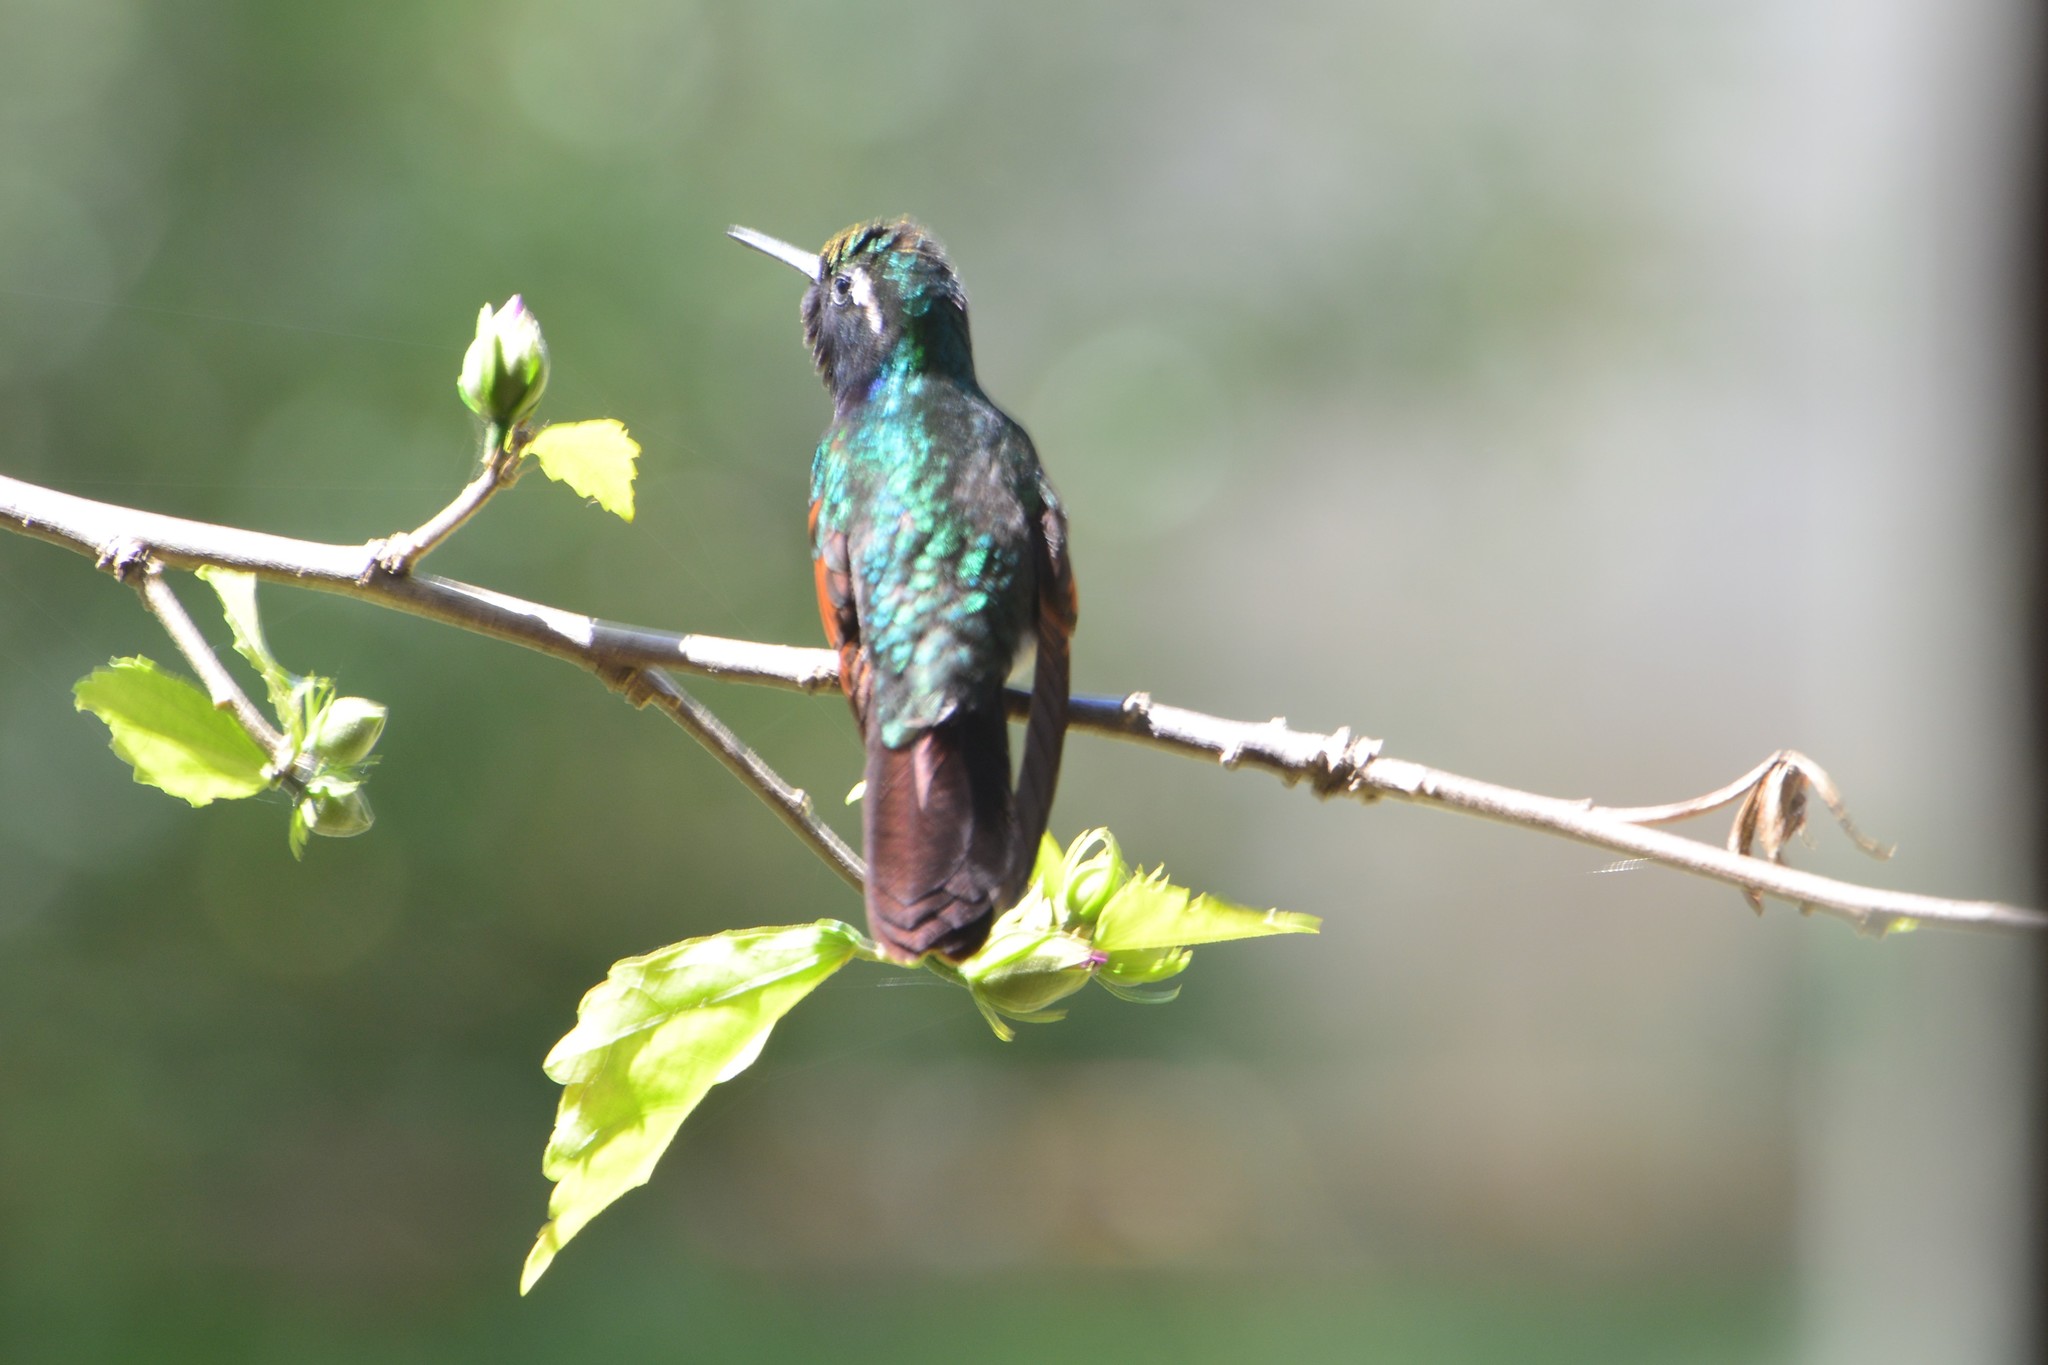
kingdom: Animalia
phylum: Chordata
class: Aves
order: Apodiformes
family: Trochilidae
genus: Basilinna
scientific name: Basilinna leucotis
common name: White-eared hummingbird
